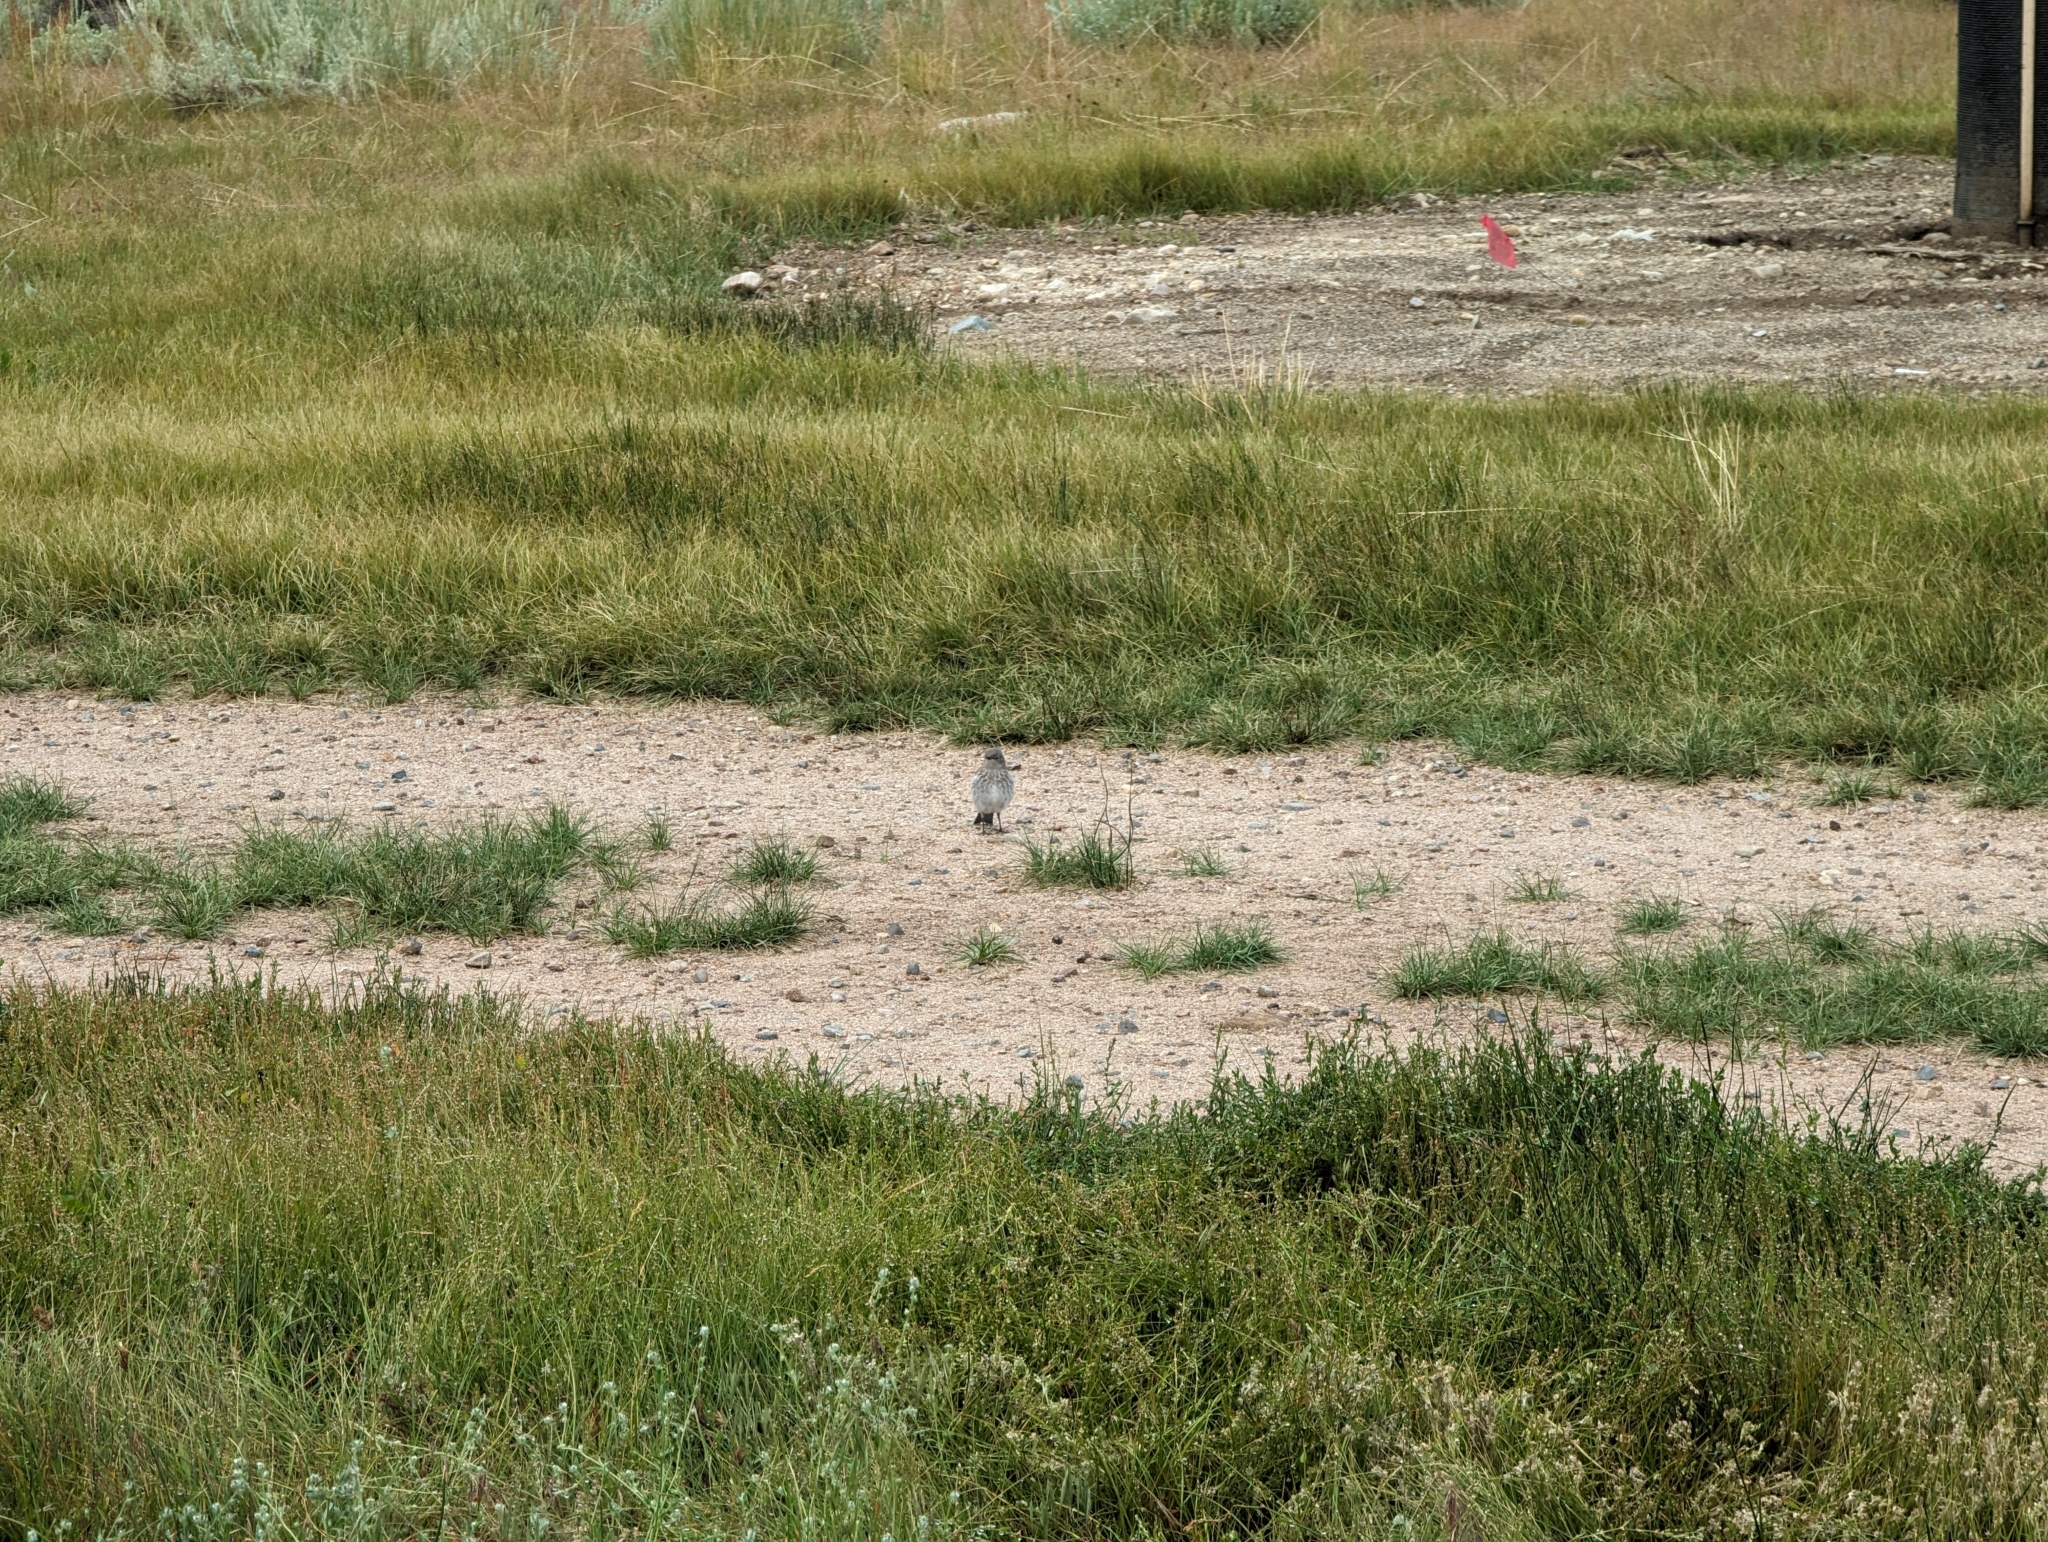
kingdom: Animalia
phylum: Chordata
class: Aves
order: Passeriformes
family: Turdidae
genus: Sialia
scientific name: Sialia currucoides
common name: Mountain bluebird
